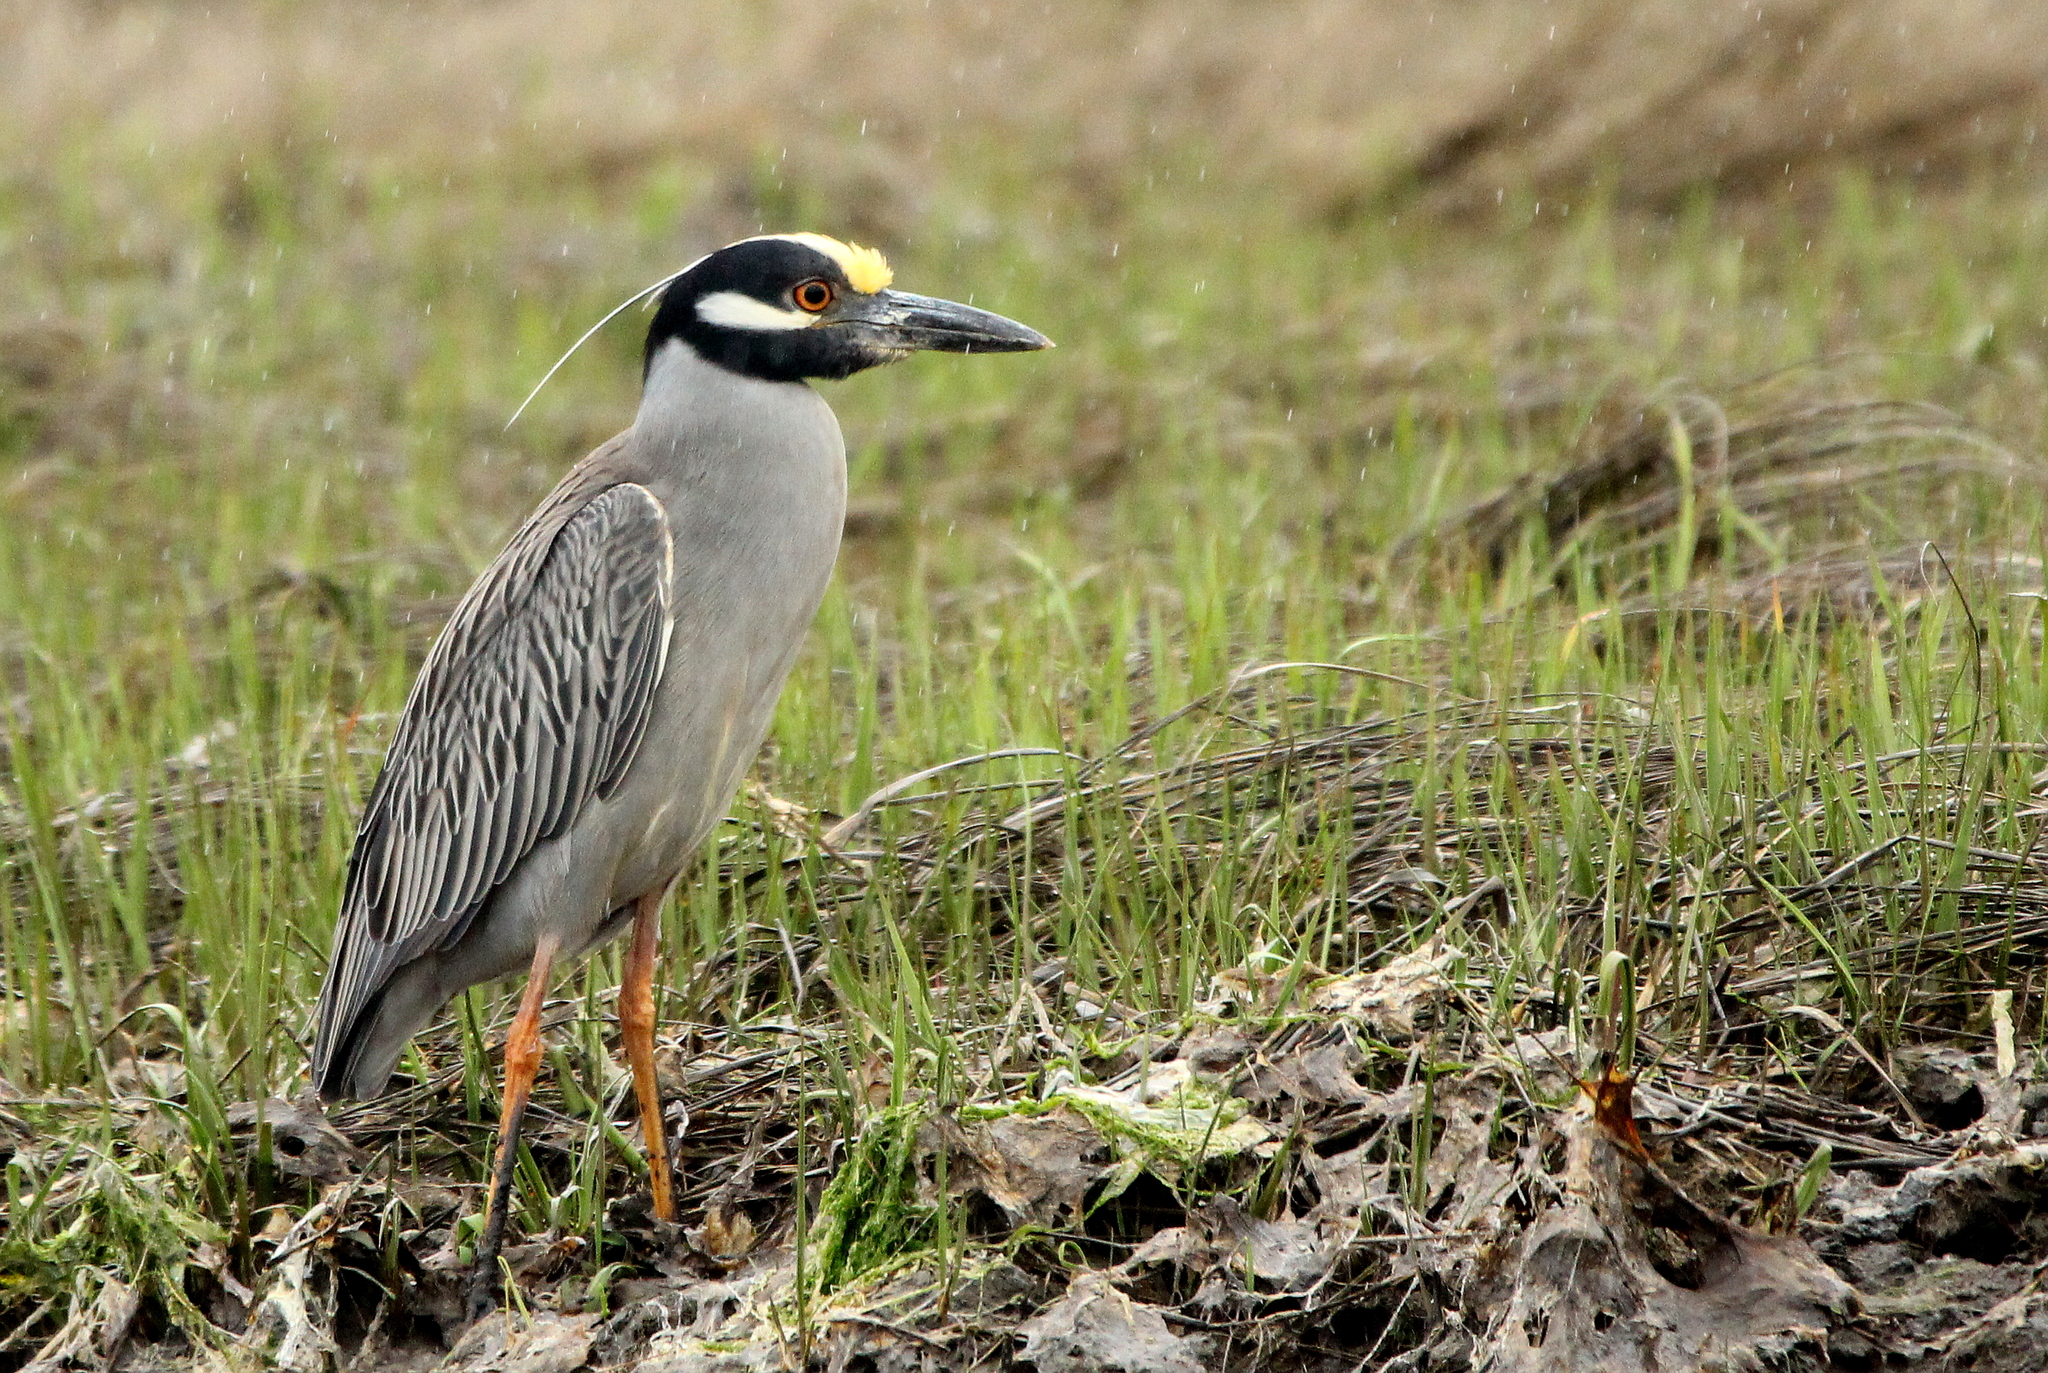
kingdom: Animalia
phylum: Chordata
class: Aves
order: Pelecaniformes
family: Ardeidae
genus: Nyctanassa
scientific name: Nyctanassa violacea
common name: Yellow-crowned night heron
